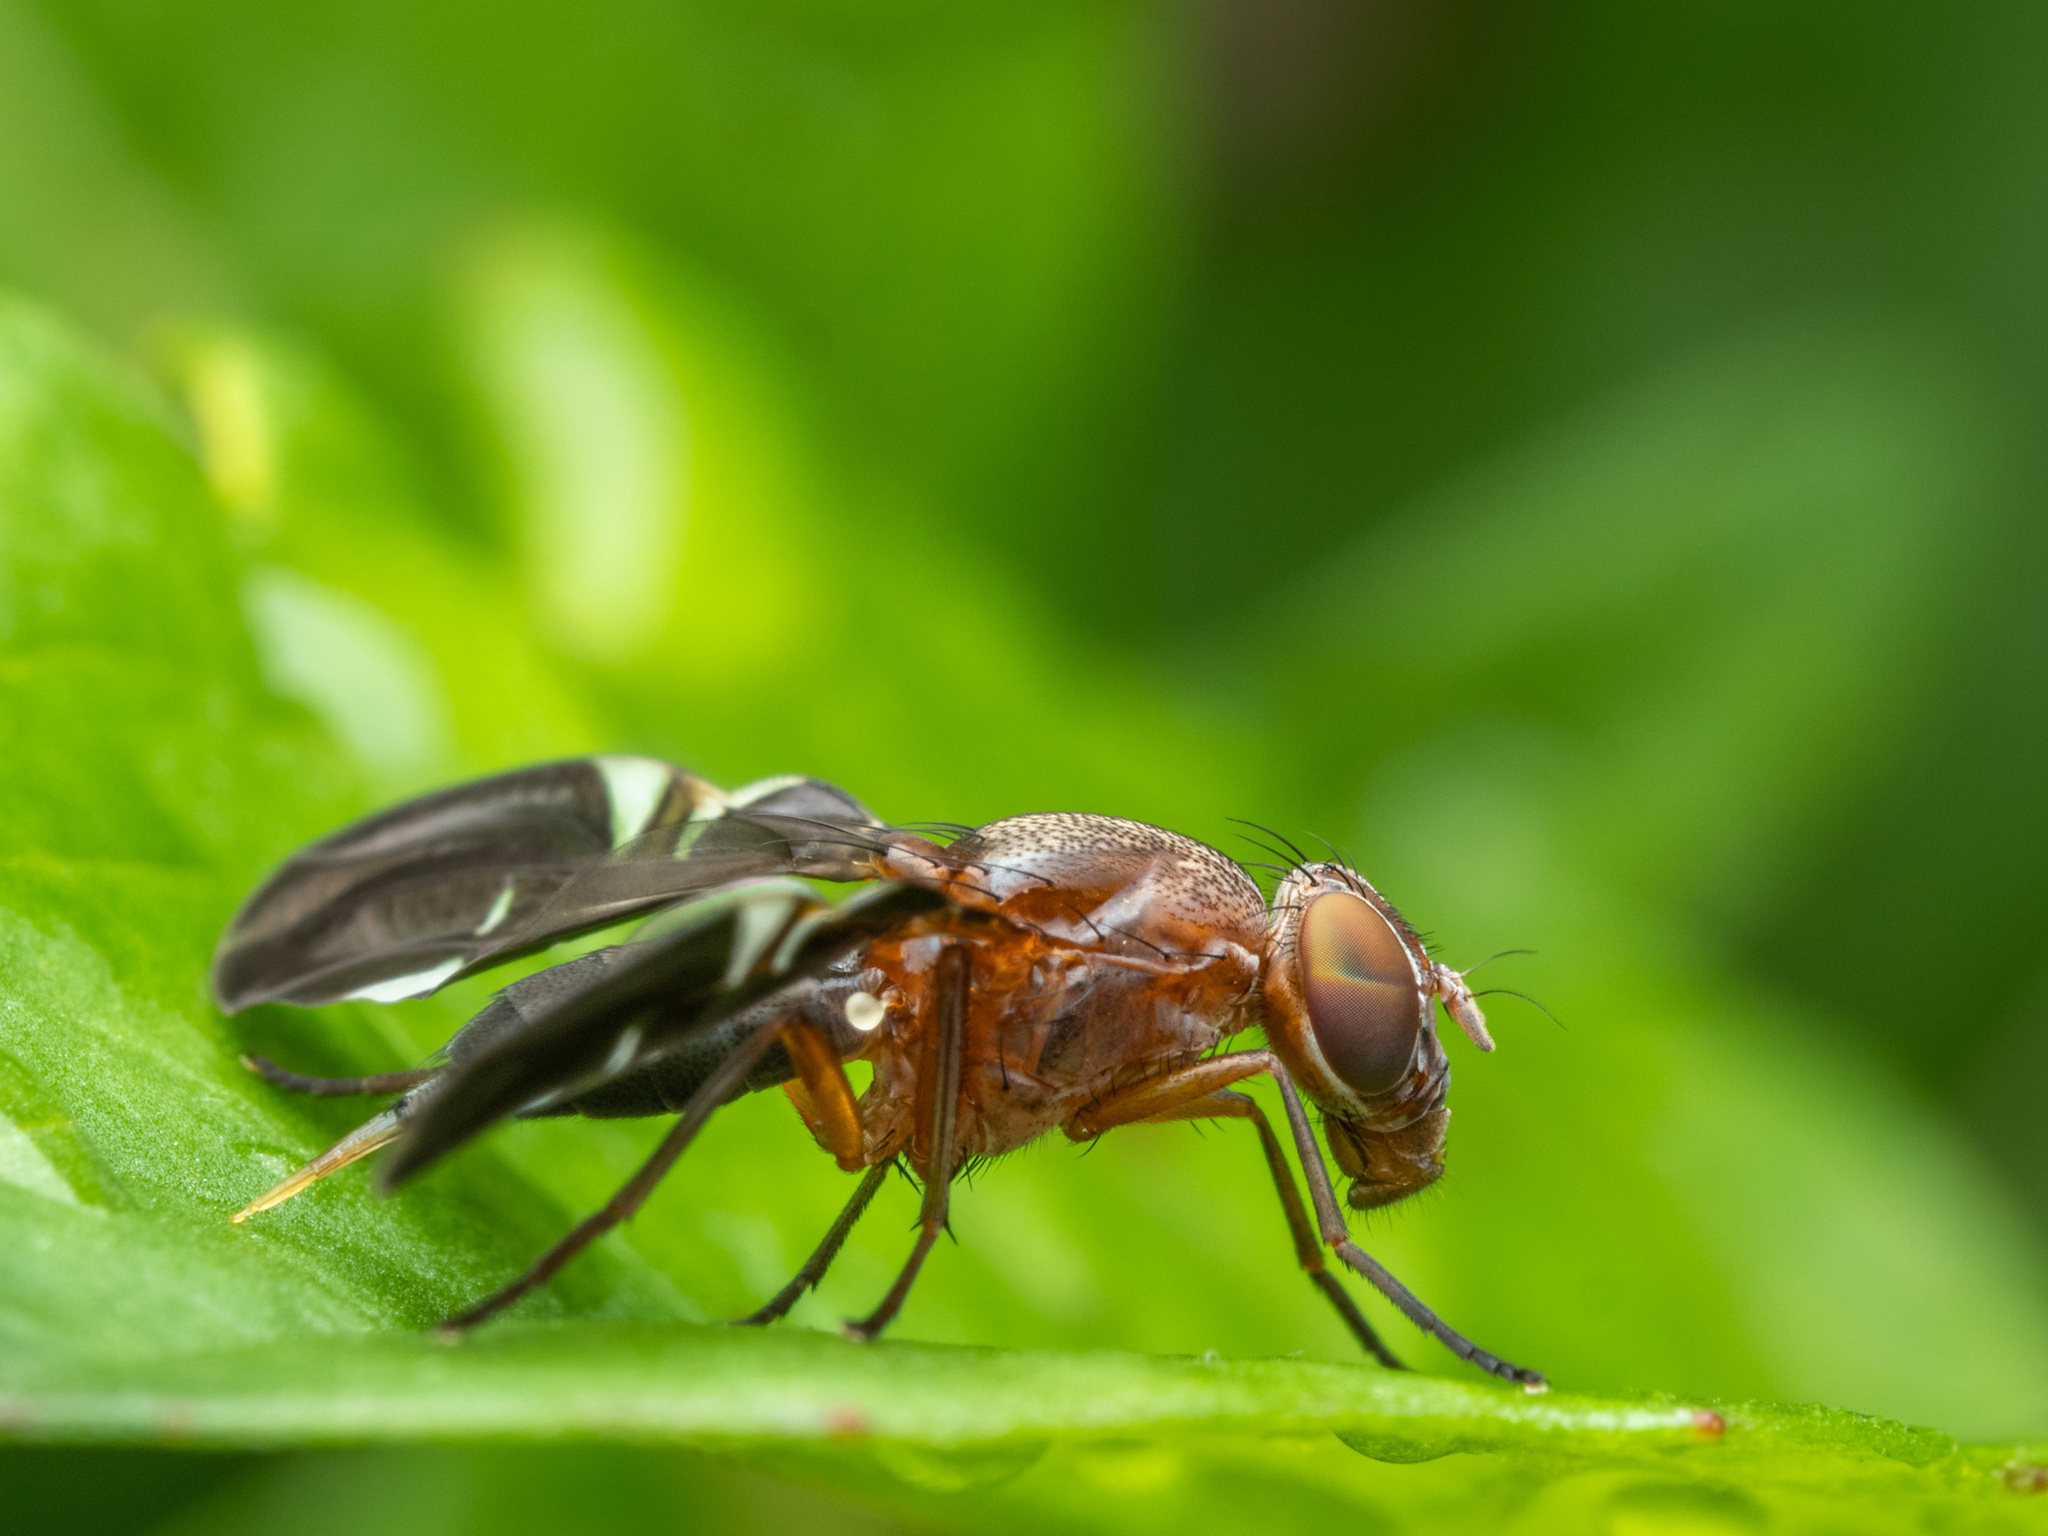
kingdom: Animalia
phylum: Arthropoda
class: Insecta
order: Diptera
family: Ulidiidae
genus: Delphinia
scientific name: Delphinia picta
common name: Common picture-winged fly
